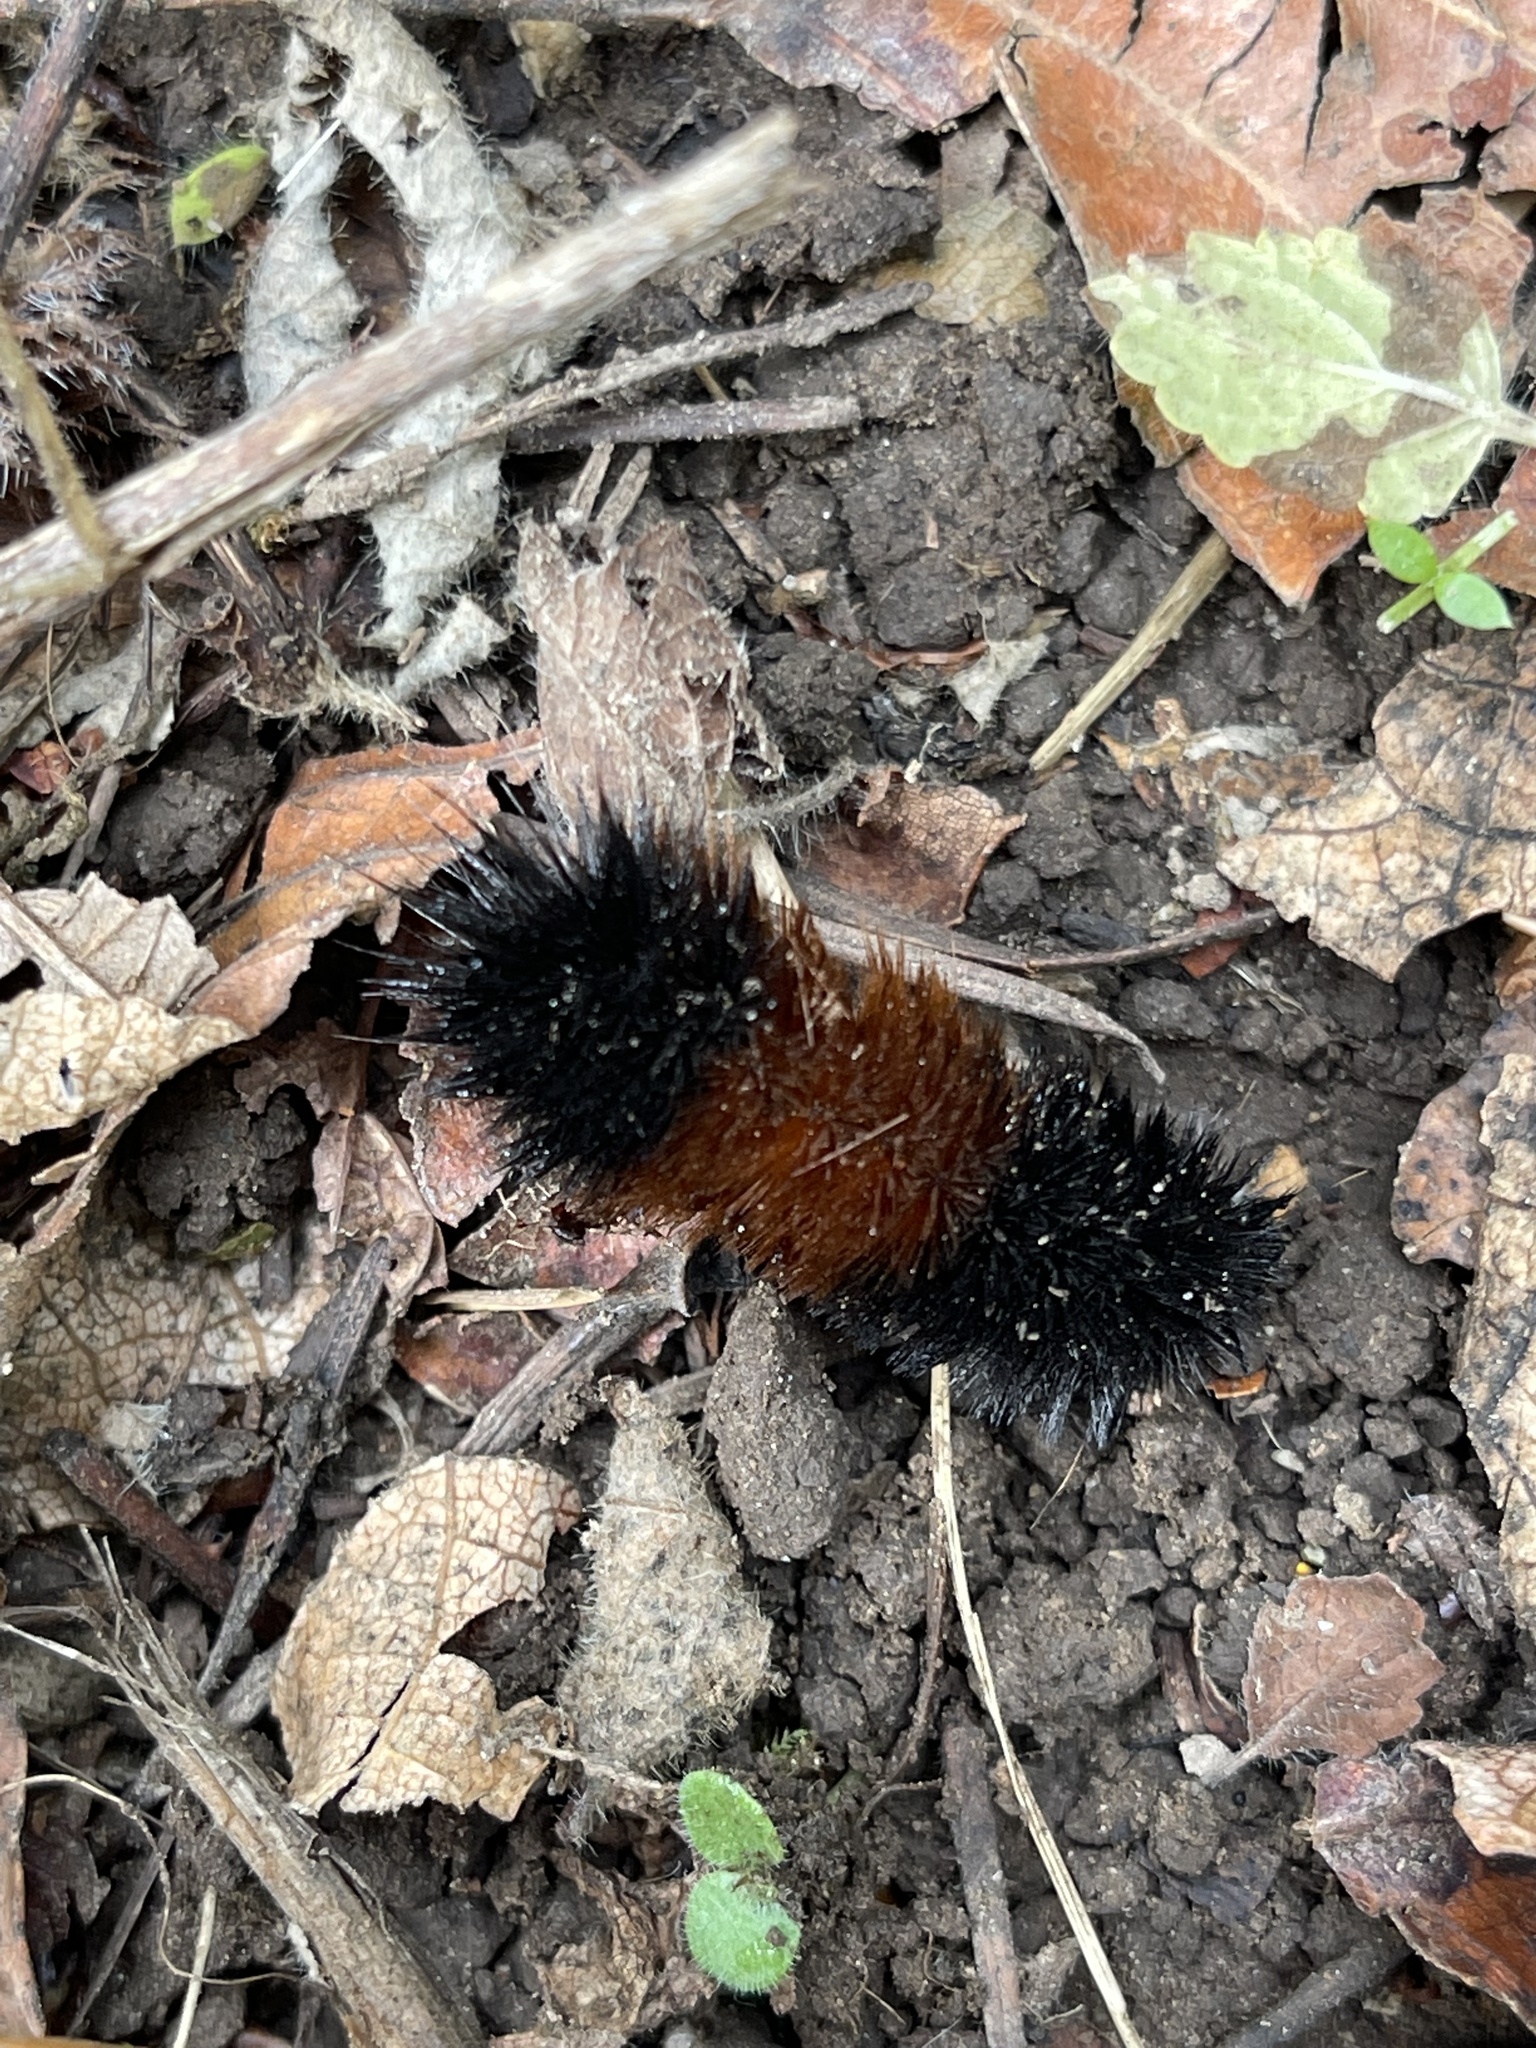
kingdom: Animalia
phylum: Arthropoda
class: Insecta
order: Lepidoptera
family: Erebidae
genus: Pyrrharctia
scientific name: Pyrrharctia isabella
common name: Isabella tiger moth
